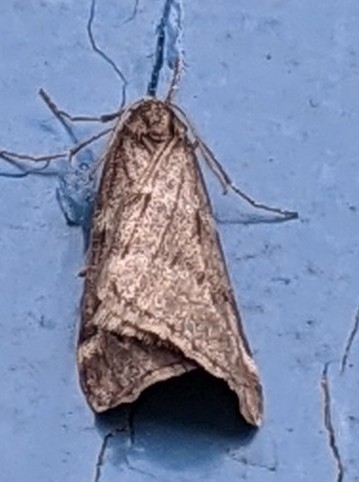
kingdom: Animalia
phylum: Arthropoda
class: Insecta
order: Lepidoptera
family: Geometridae
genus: Alsophila
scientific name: Alsophila pometaria
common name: Fall cankerworm
